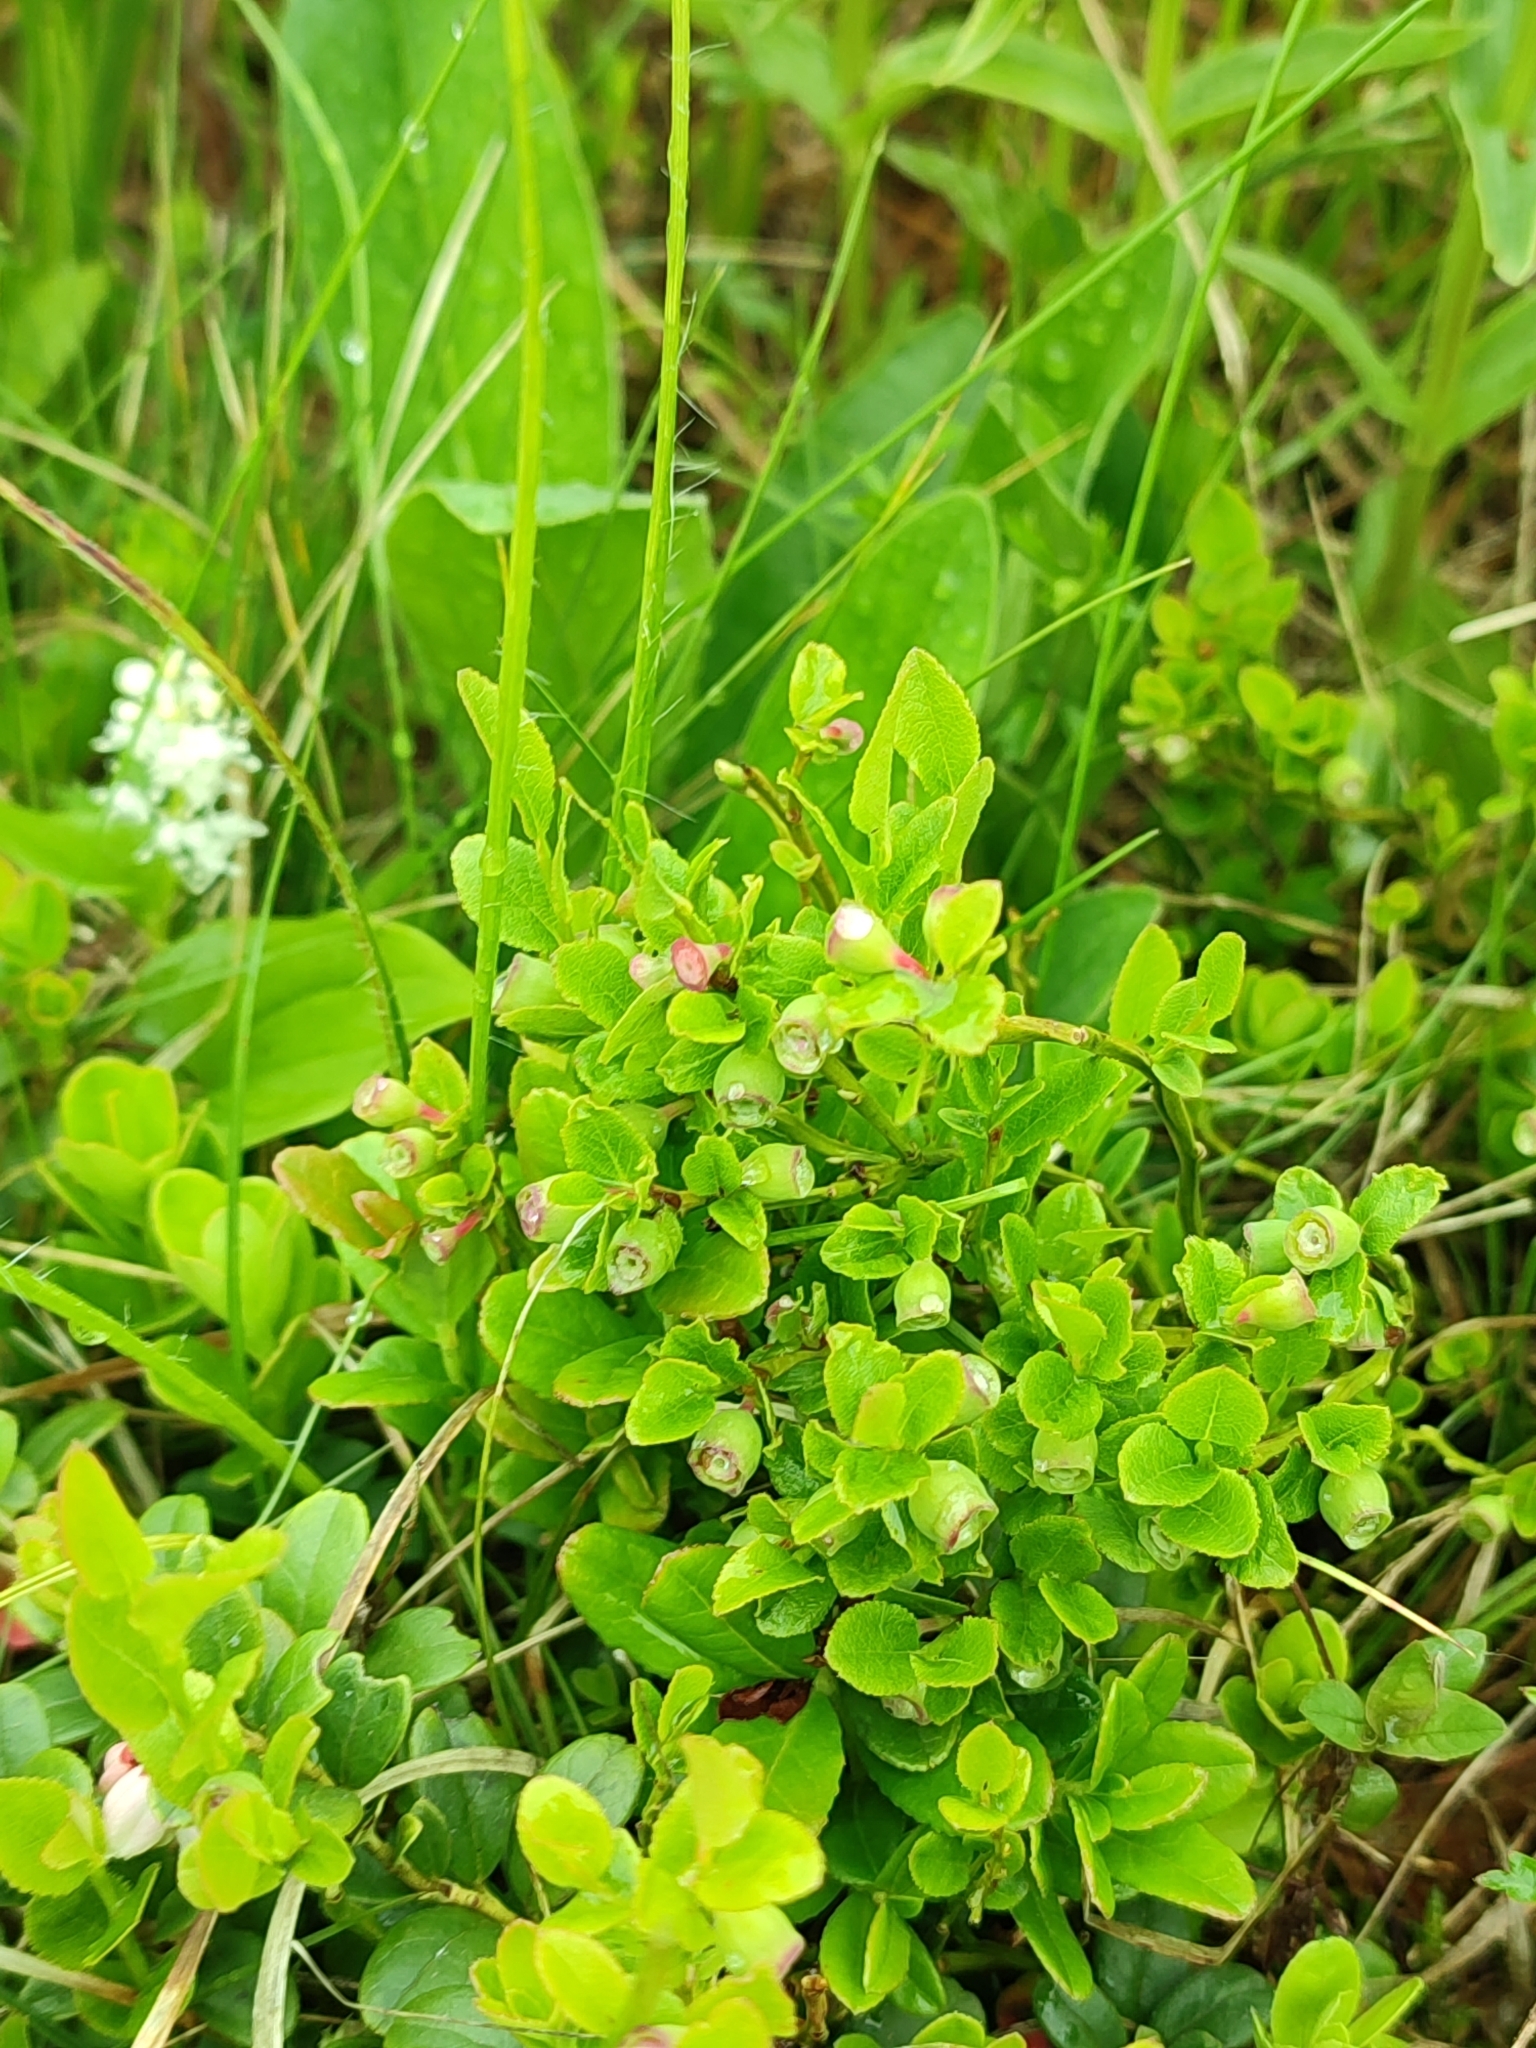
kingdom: Plantae
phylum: Tracheophyta
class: Magnoliopsida
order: Ericales
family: Ericaceae
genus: Vaccinium
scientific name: Vaccinium myrtillus
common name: Bilberry
